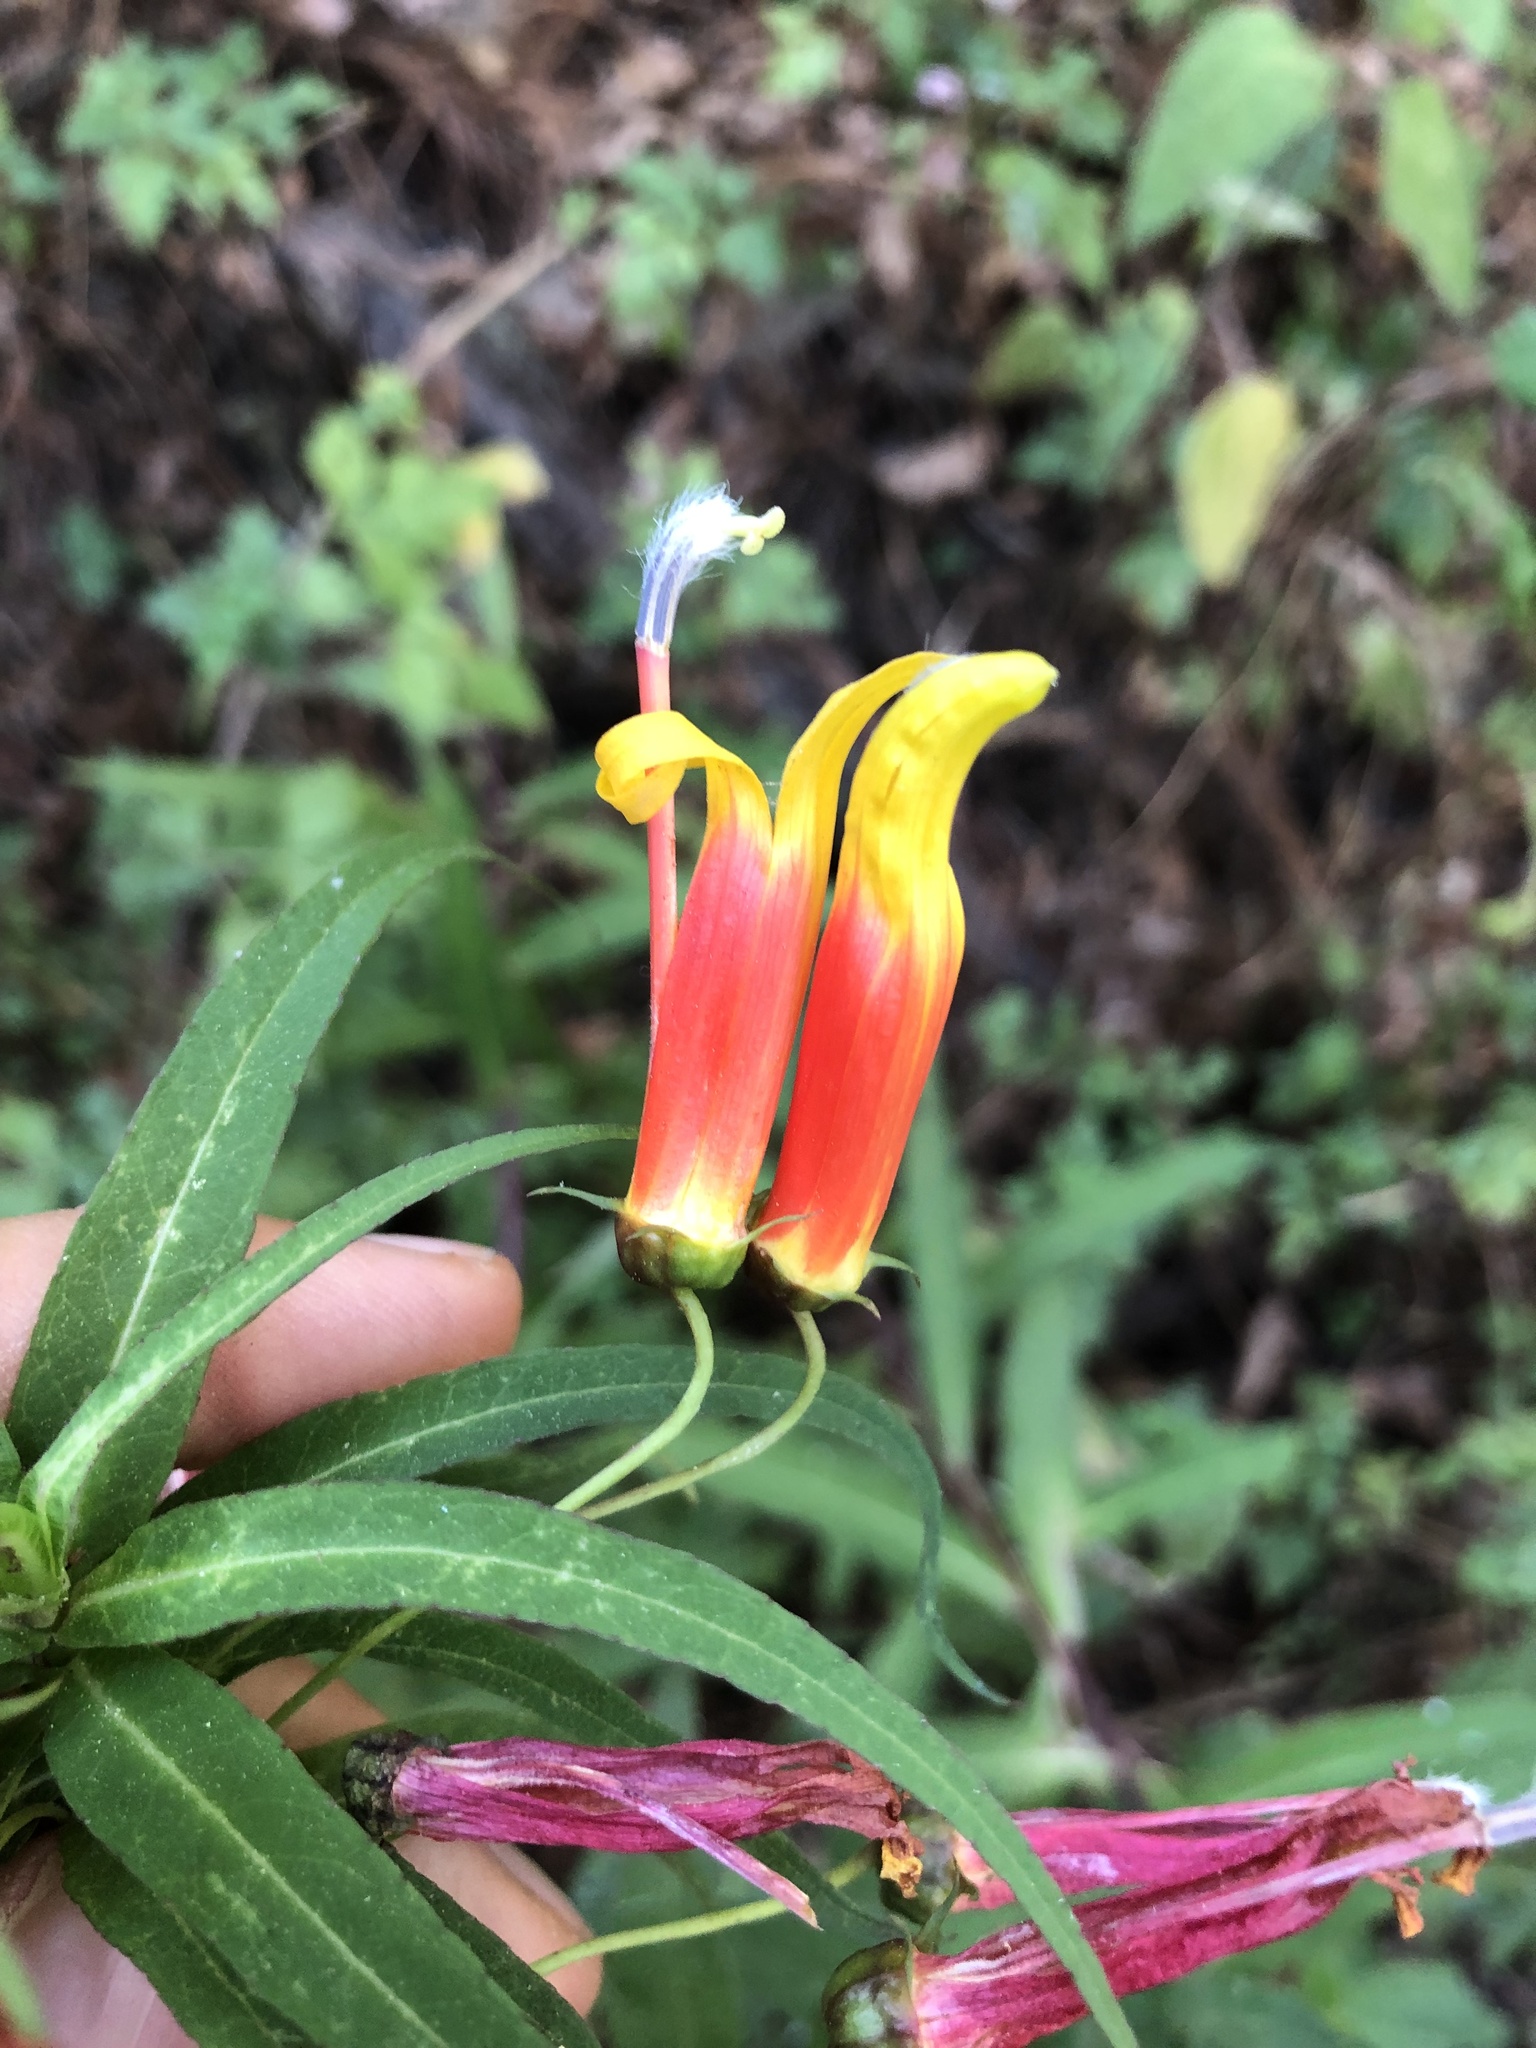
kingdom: Plantae
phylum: Tracheophyta
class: Magnoliopsida
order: Asterales
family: Campanulaceae
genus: Lobelia
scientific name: Lobelia laxiflora
